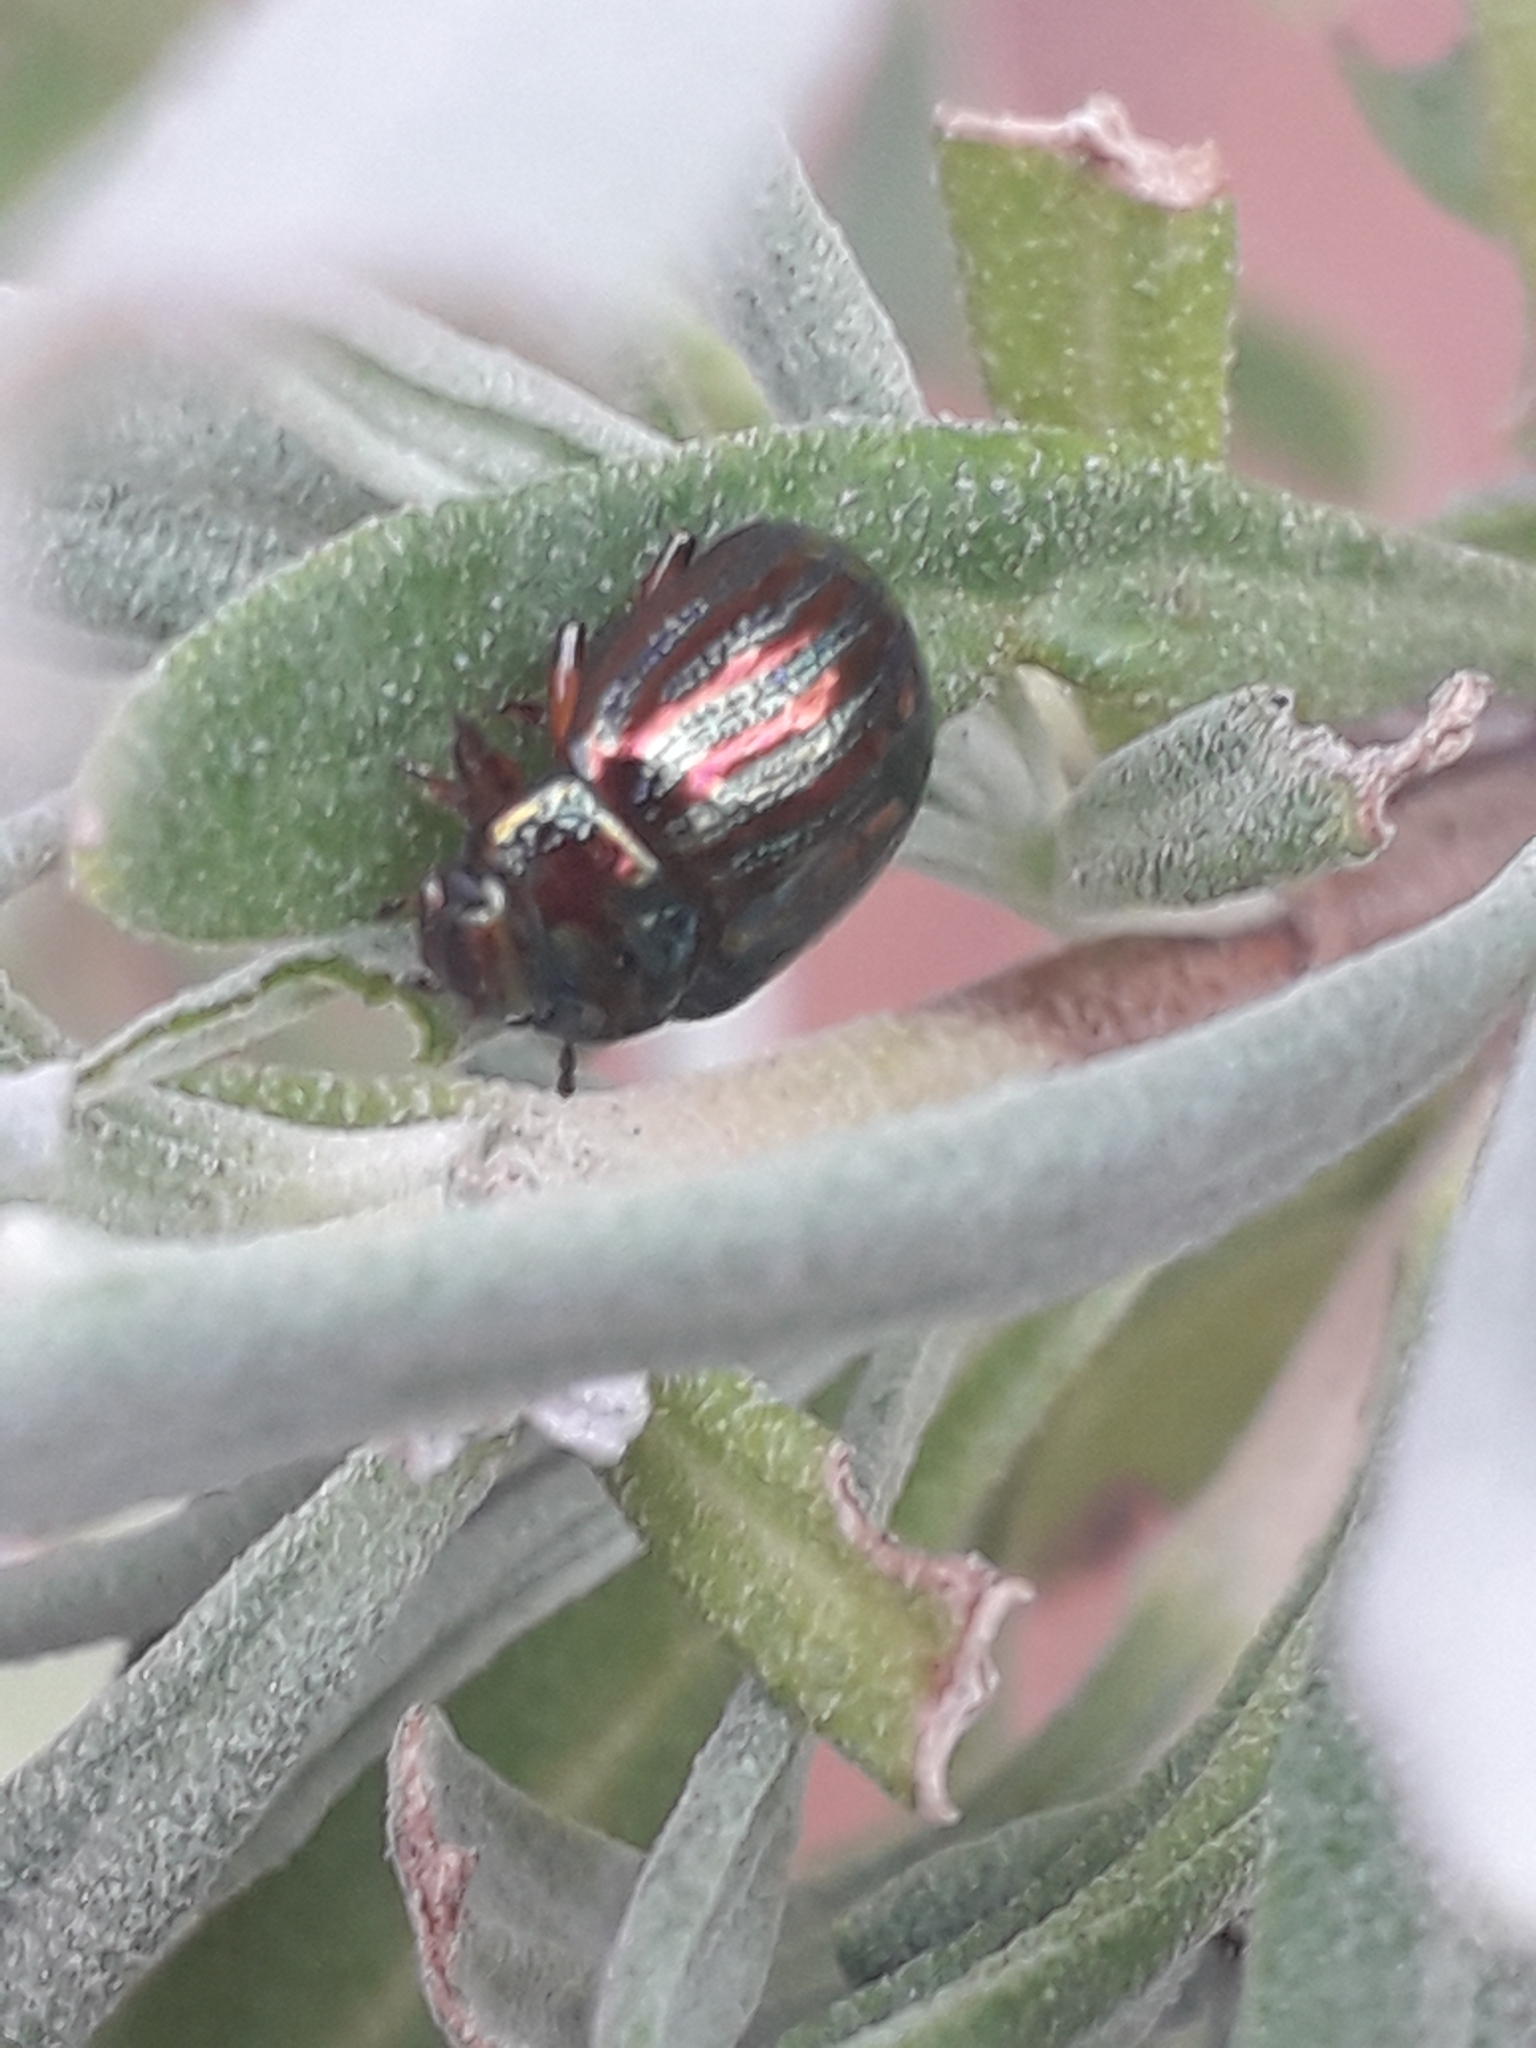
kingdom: Animalia
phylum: Arthropoda
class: Insecta
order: Coleoptera
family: Chrysomelidae
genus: Chrysolina
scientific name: Chrysolina americana
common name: Rosemary beetle
